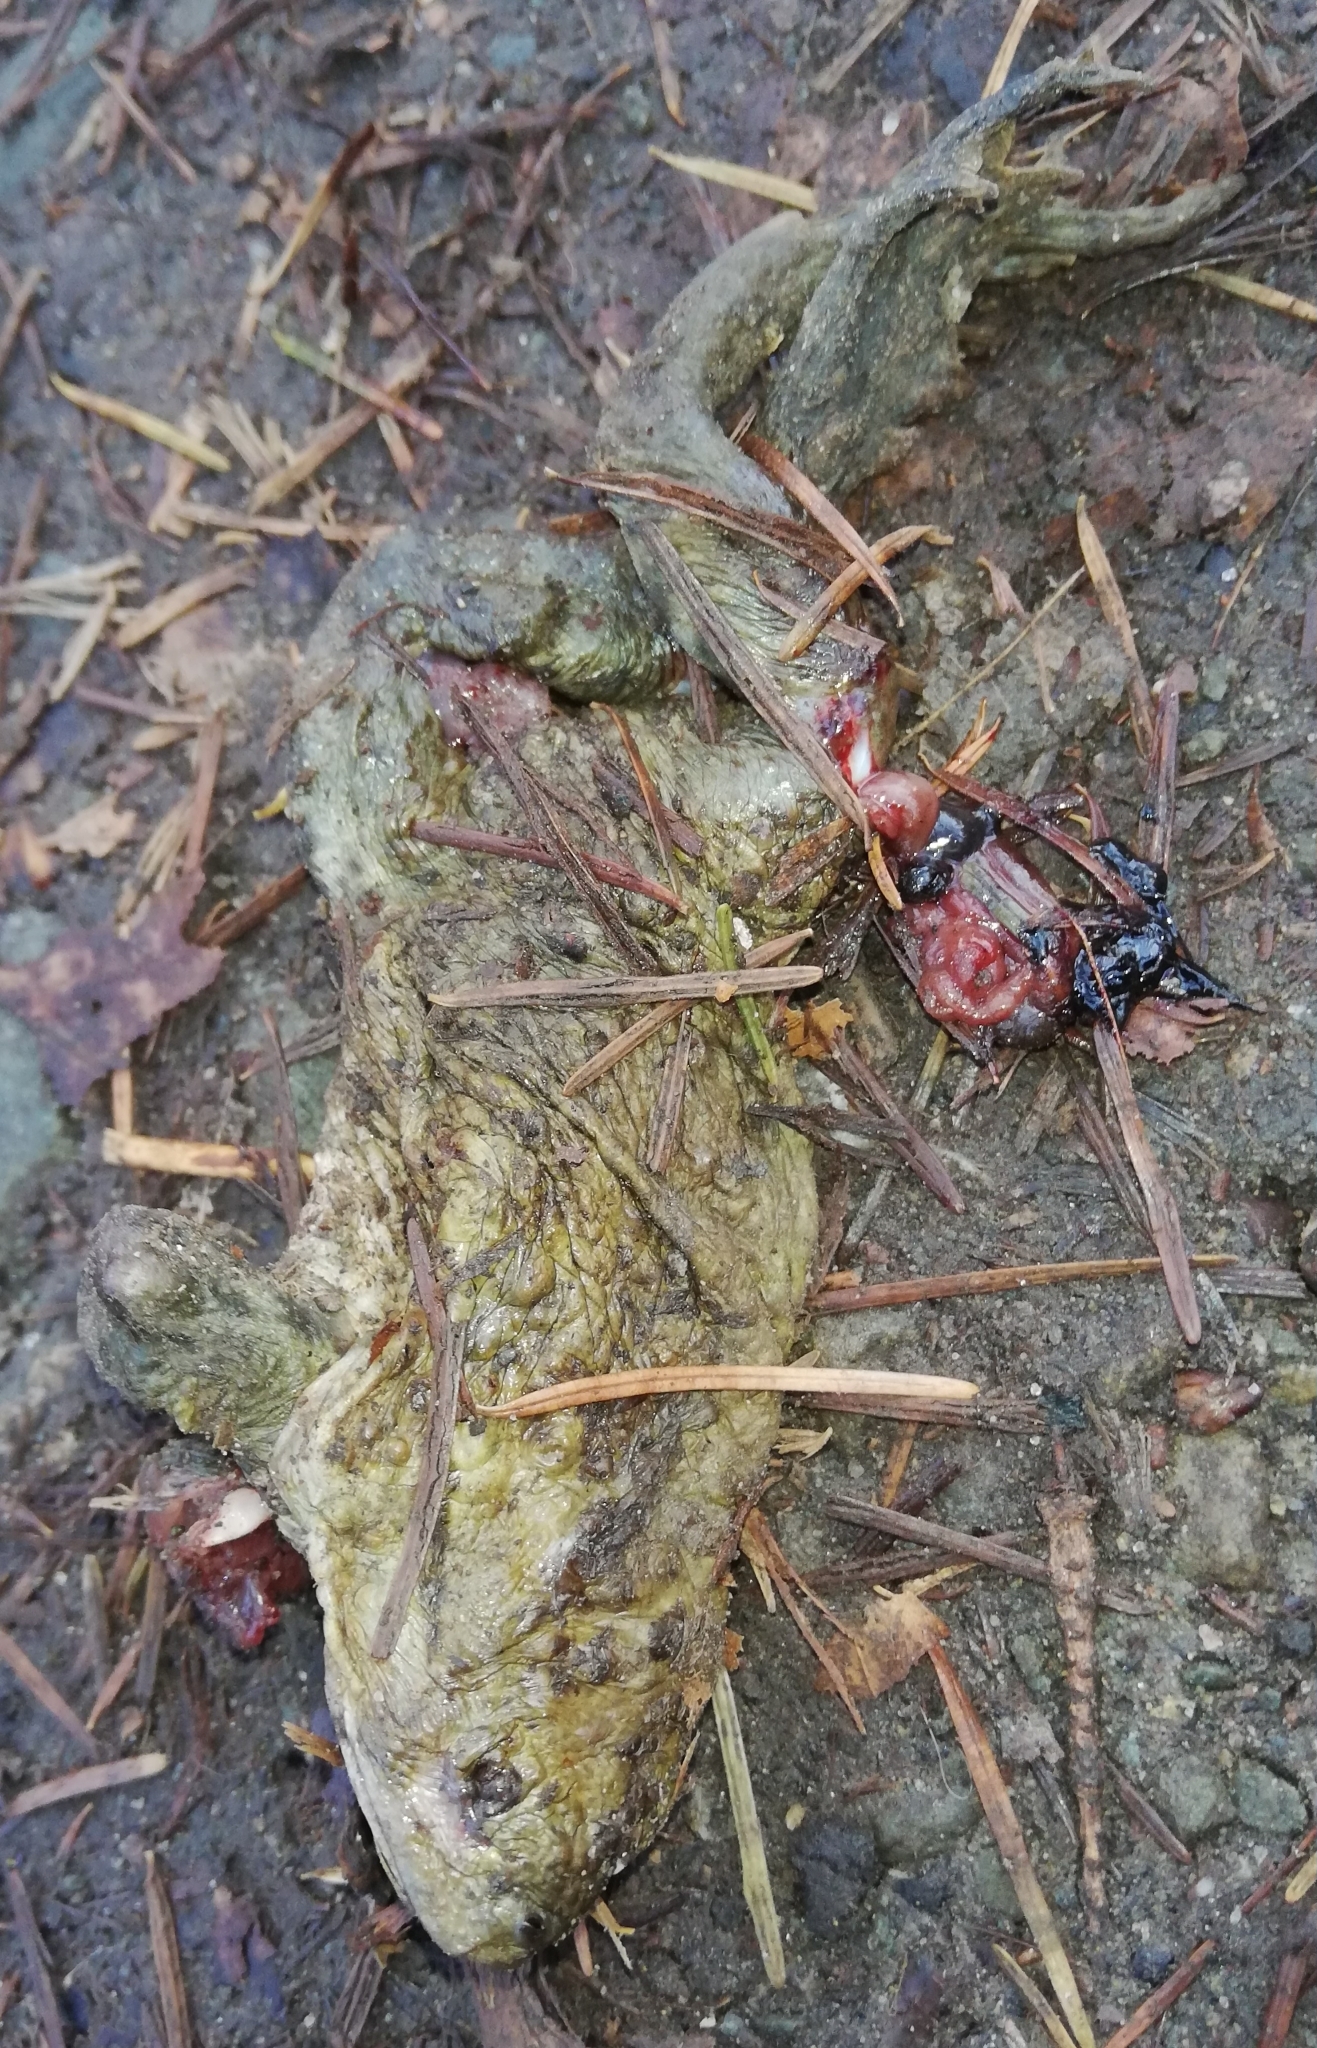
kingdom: Animalia
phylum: Chordata
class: Amphibia
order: Anura
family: Bufonidae
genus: Bufo
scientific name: Bufo bufo
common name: Common toad
